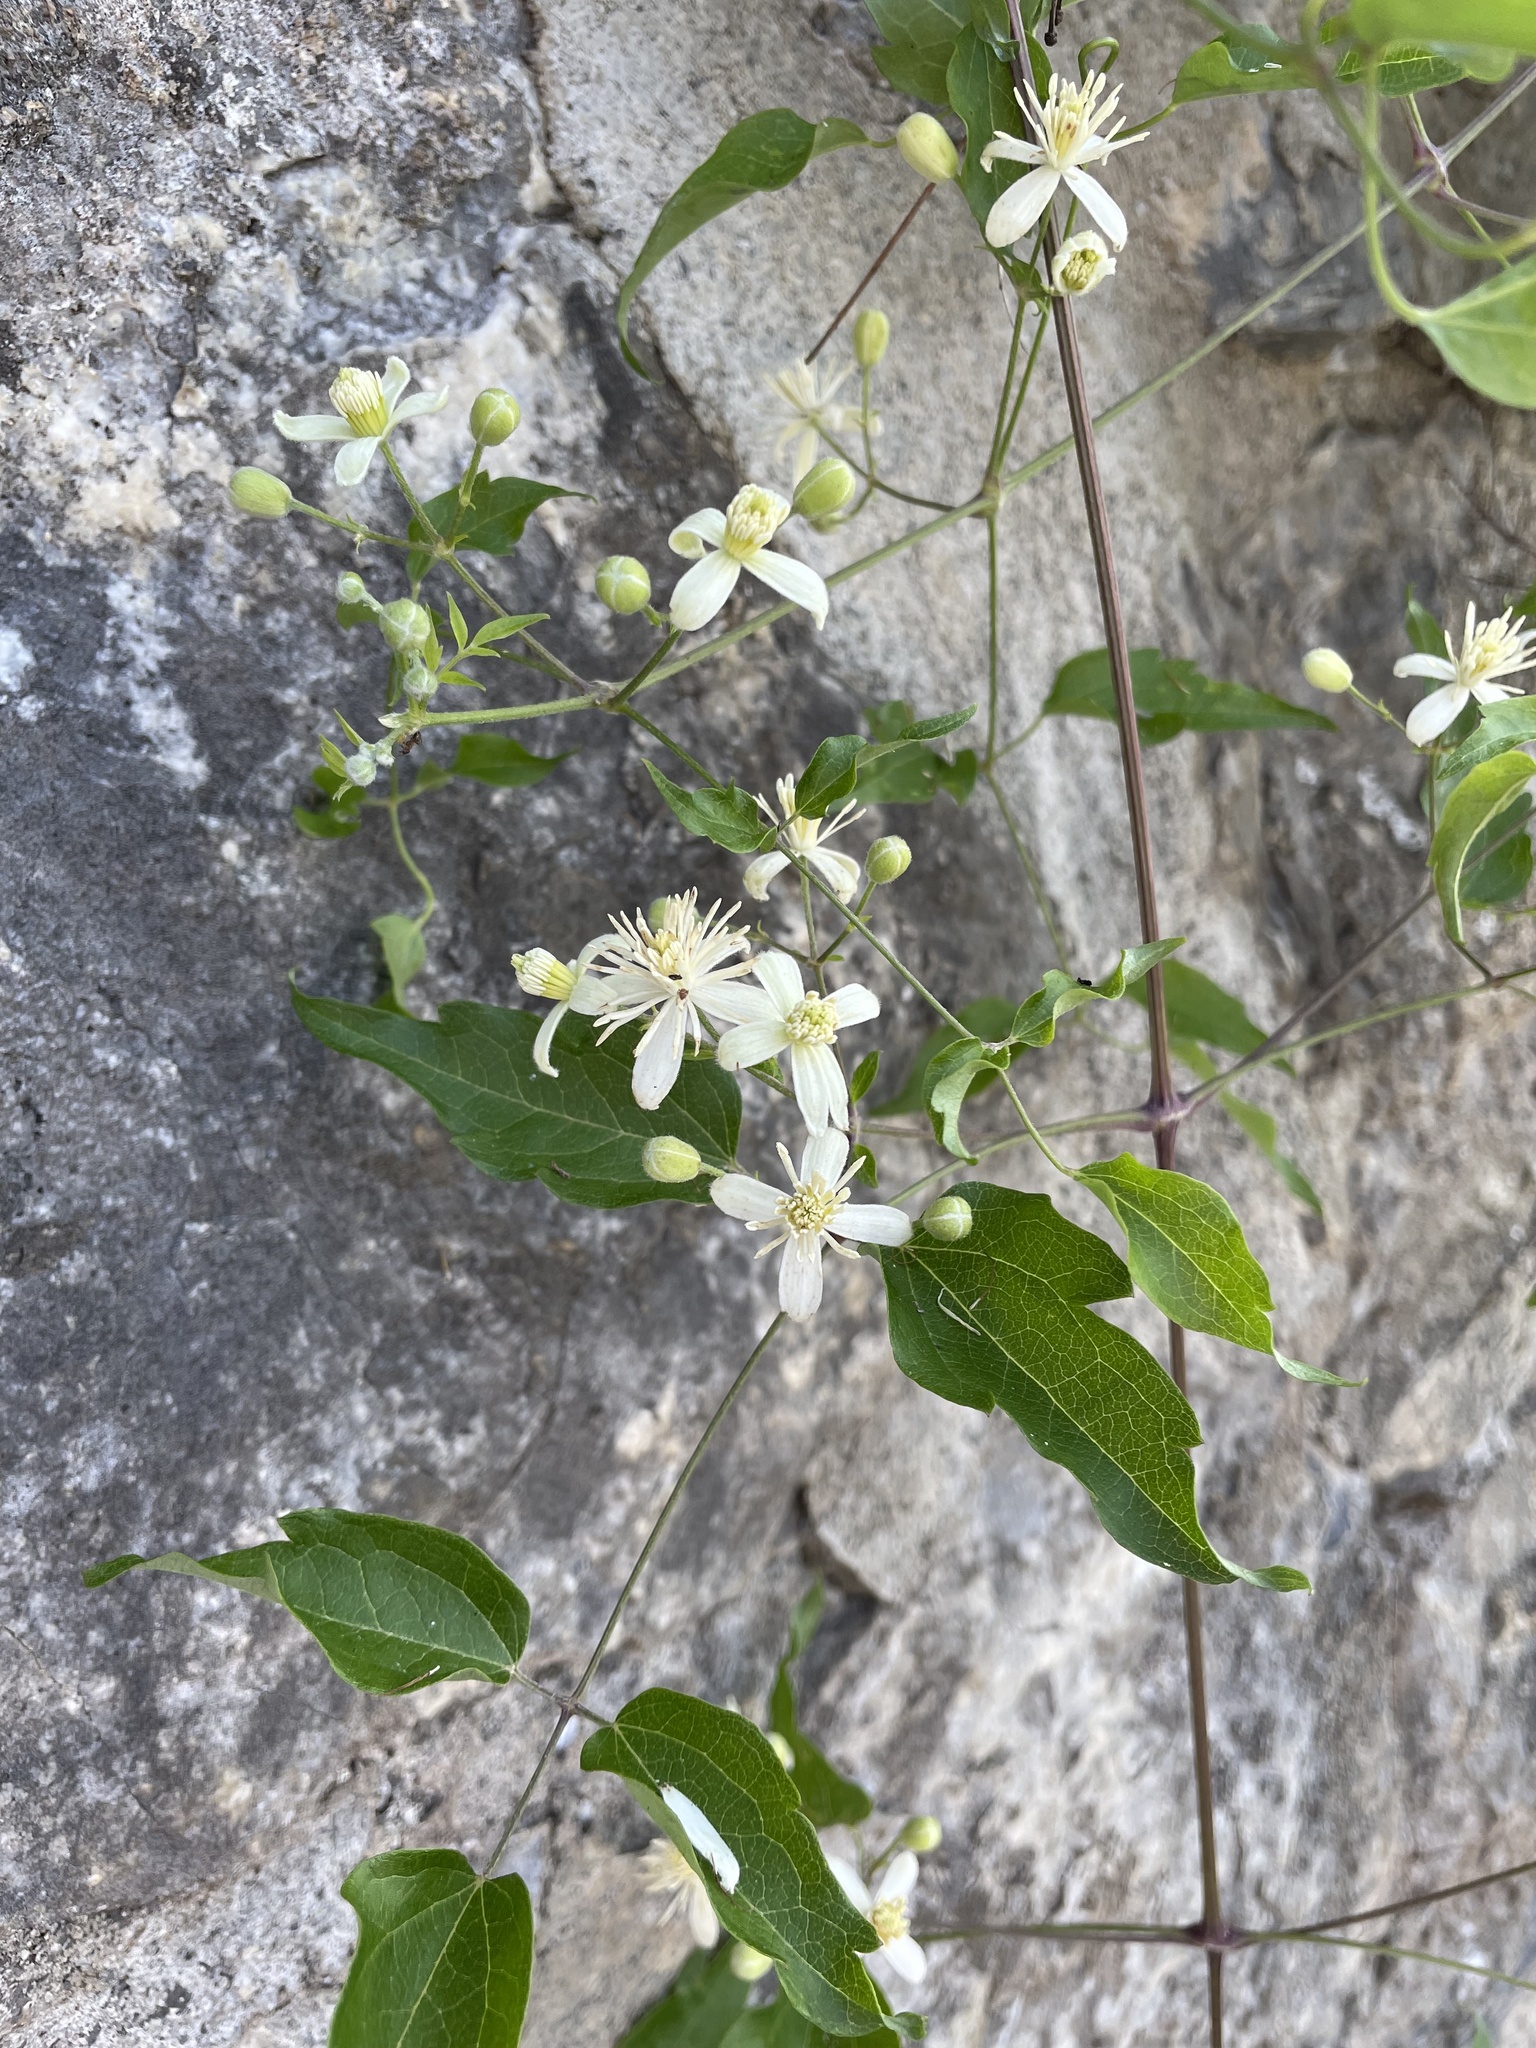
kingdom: Plantae
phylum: Tracheophyta
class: Magnoliopsida
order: Ranunculales
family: Ranunculaceae
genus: Clematis
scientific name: Clematis vitalba
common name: Evergreen clematis
